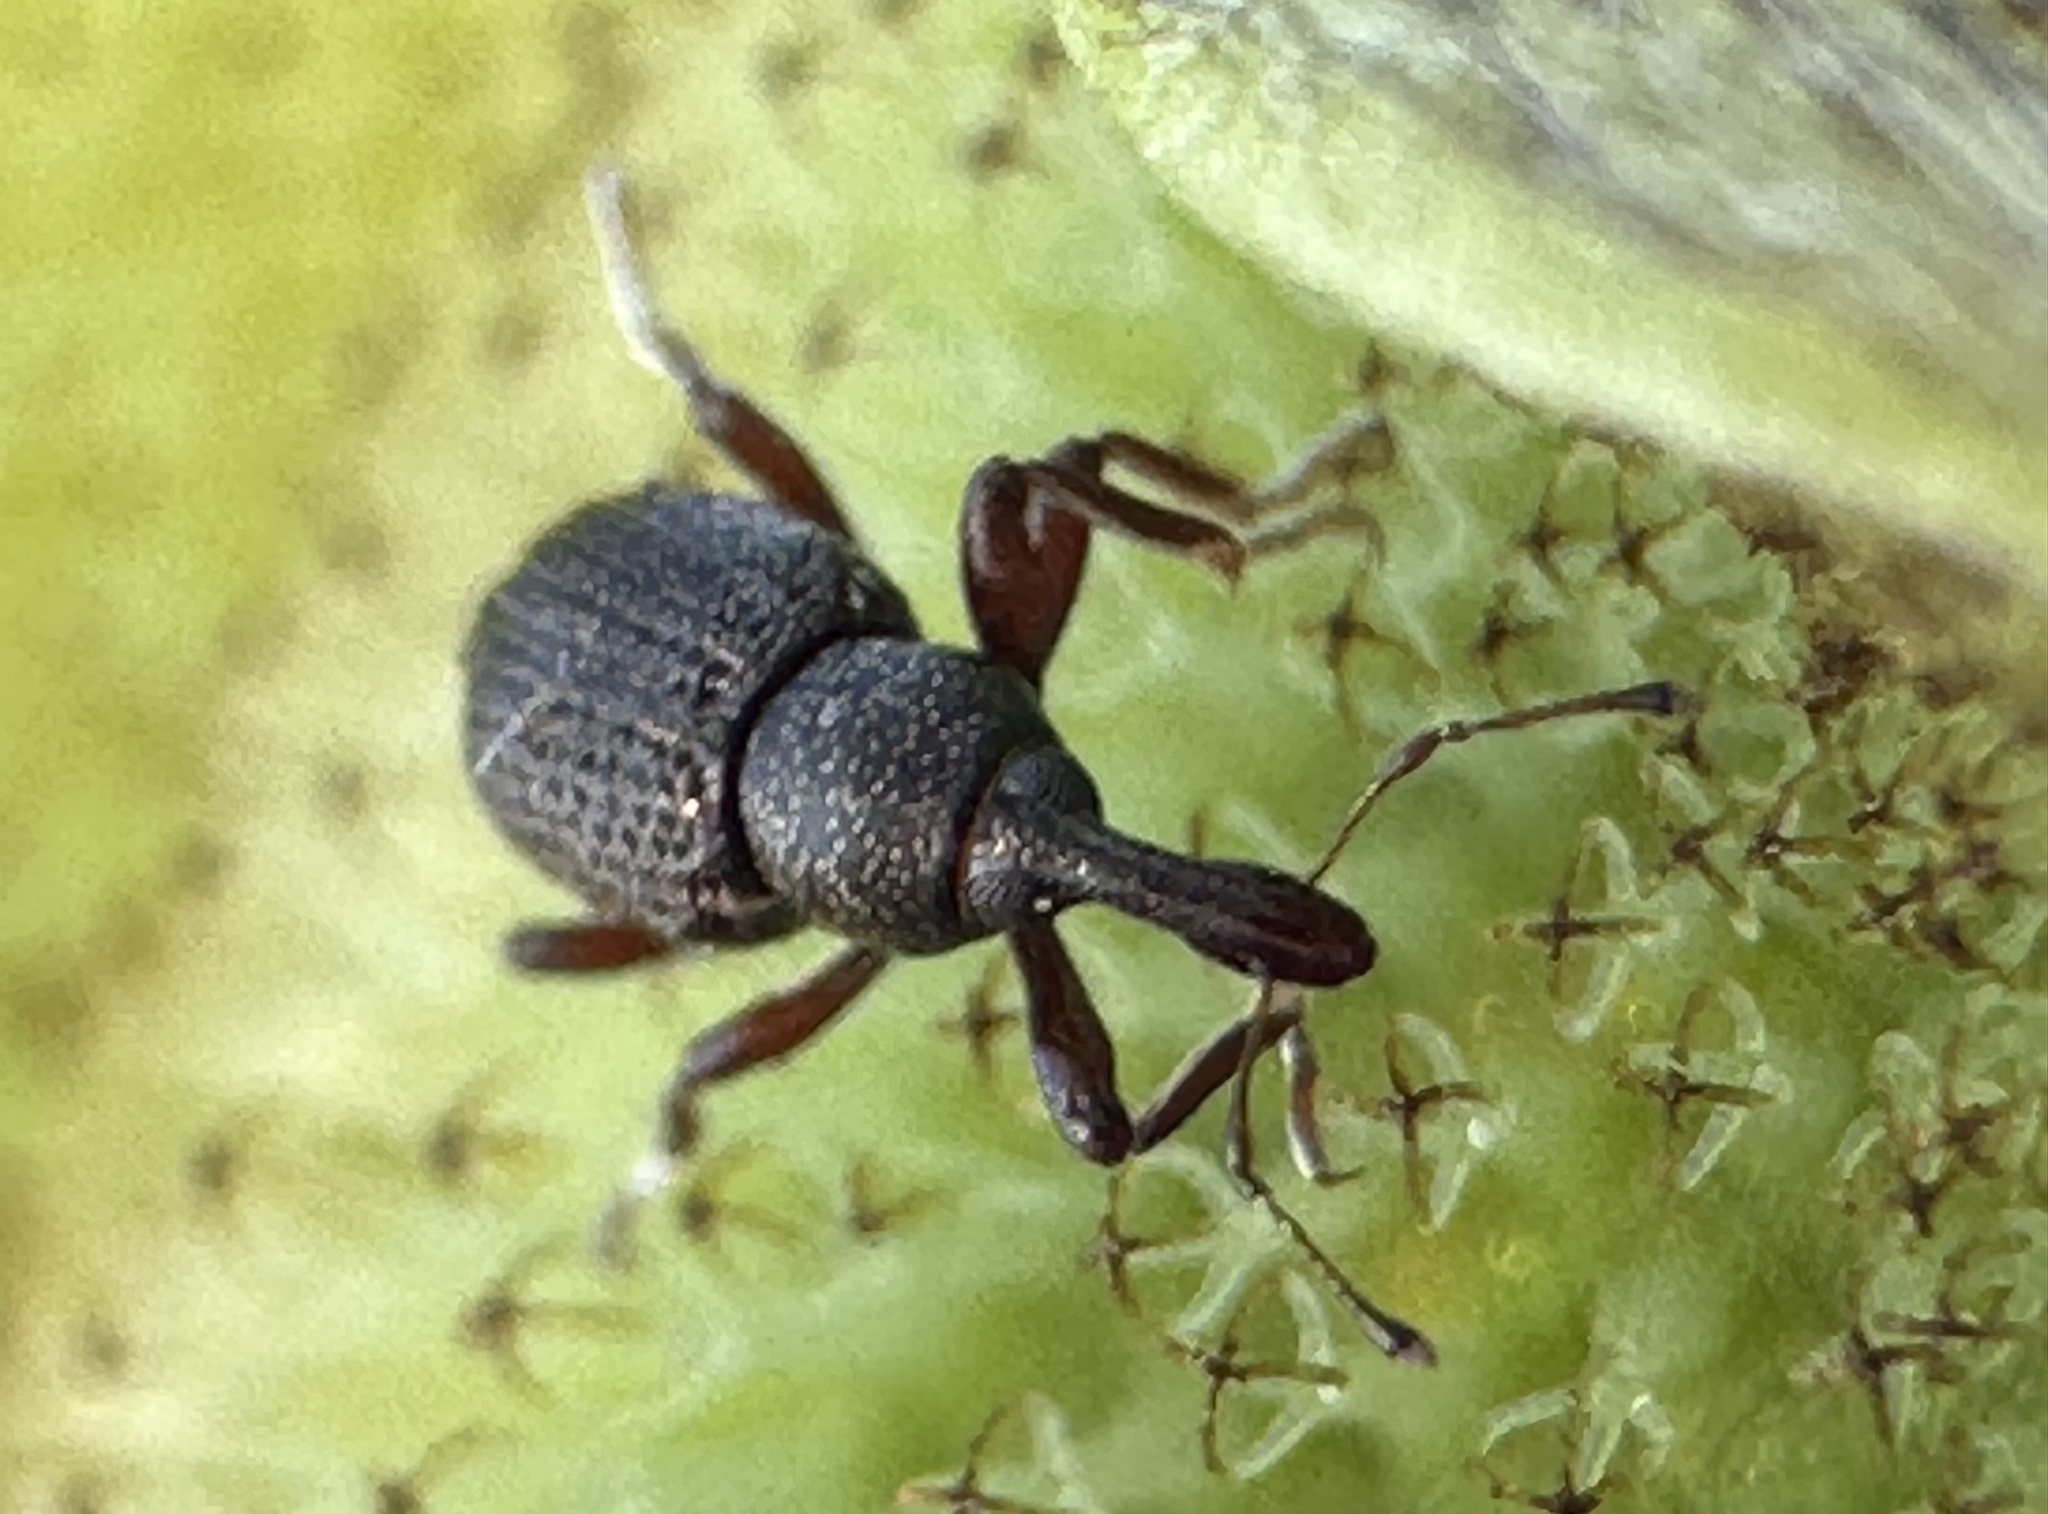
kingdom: Animalia
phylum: Arthropoda
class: Insecta
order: Coleoptera
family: Brachyceridae
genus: Cyrtobagous
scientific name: Cyrtobagous salviniae
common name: Salvinia weevil
